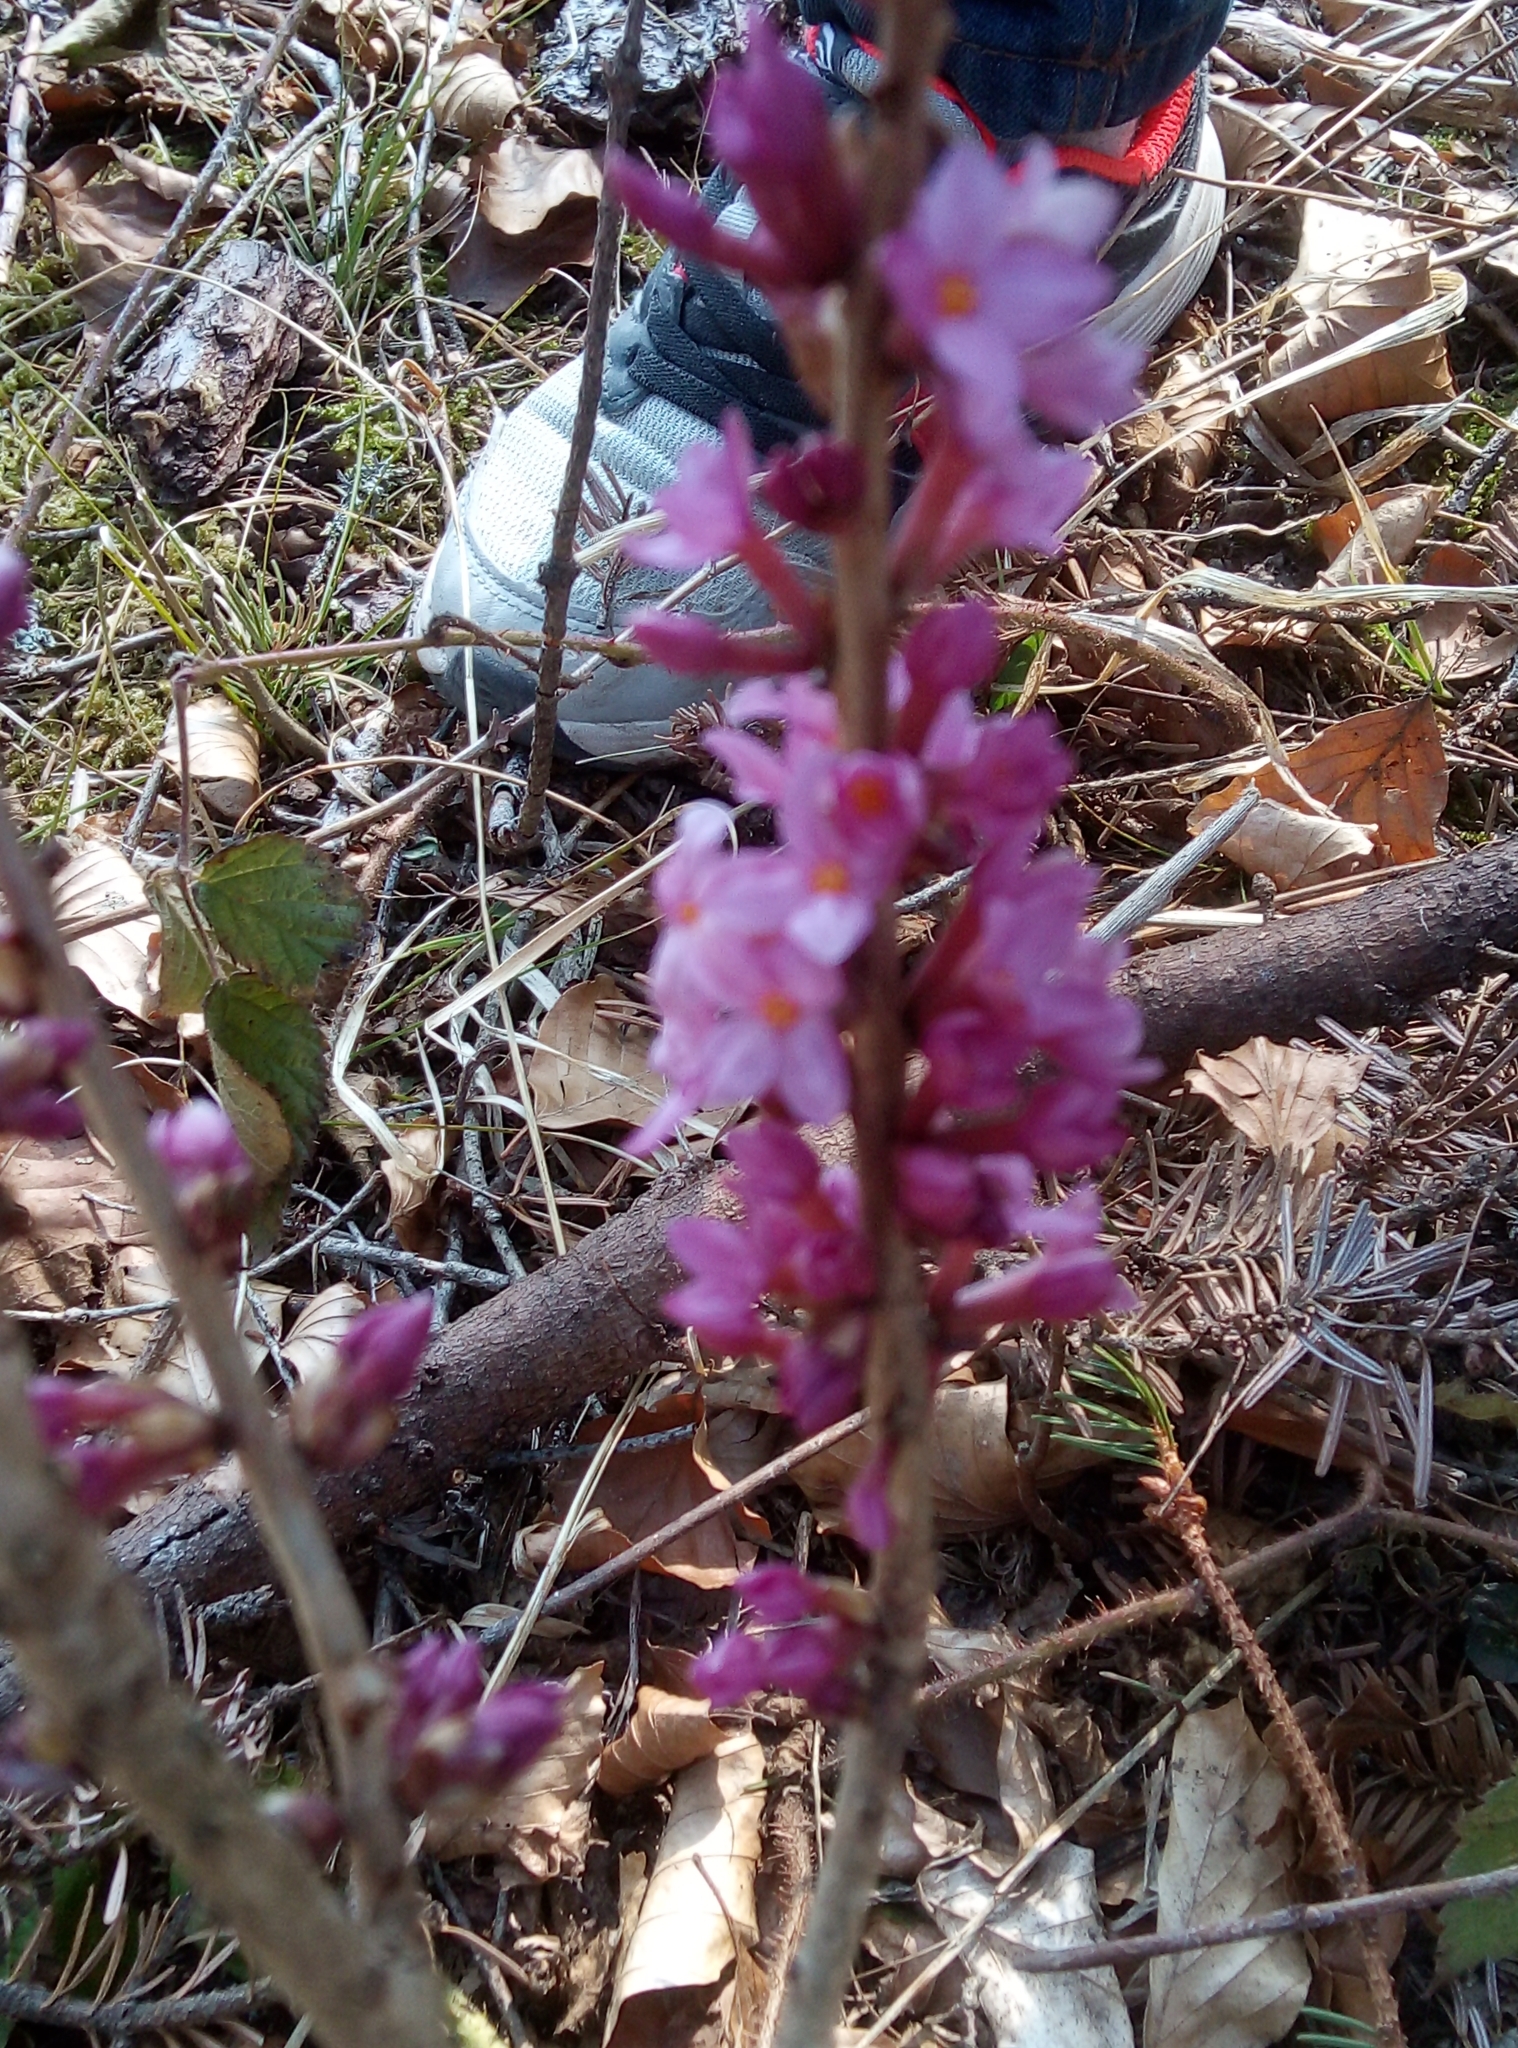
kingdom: Plantae
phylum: Tracheophyta
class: Magnoliopsida
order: Malvales
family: Thymelaeaceae
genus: Daphne
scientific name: Daphne mezereum
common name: Mezereon
